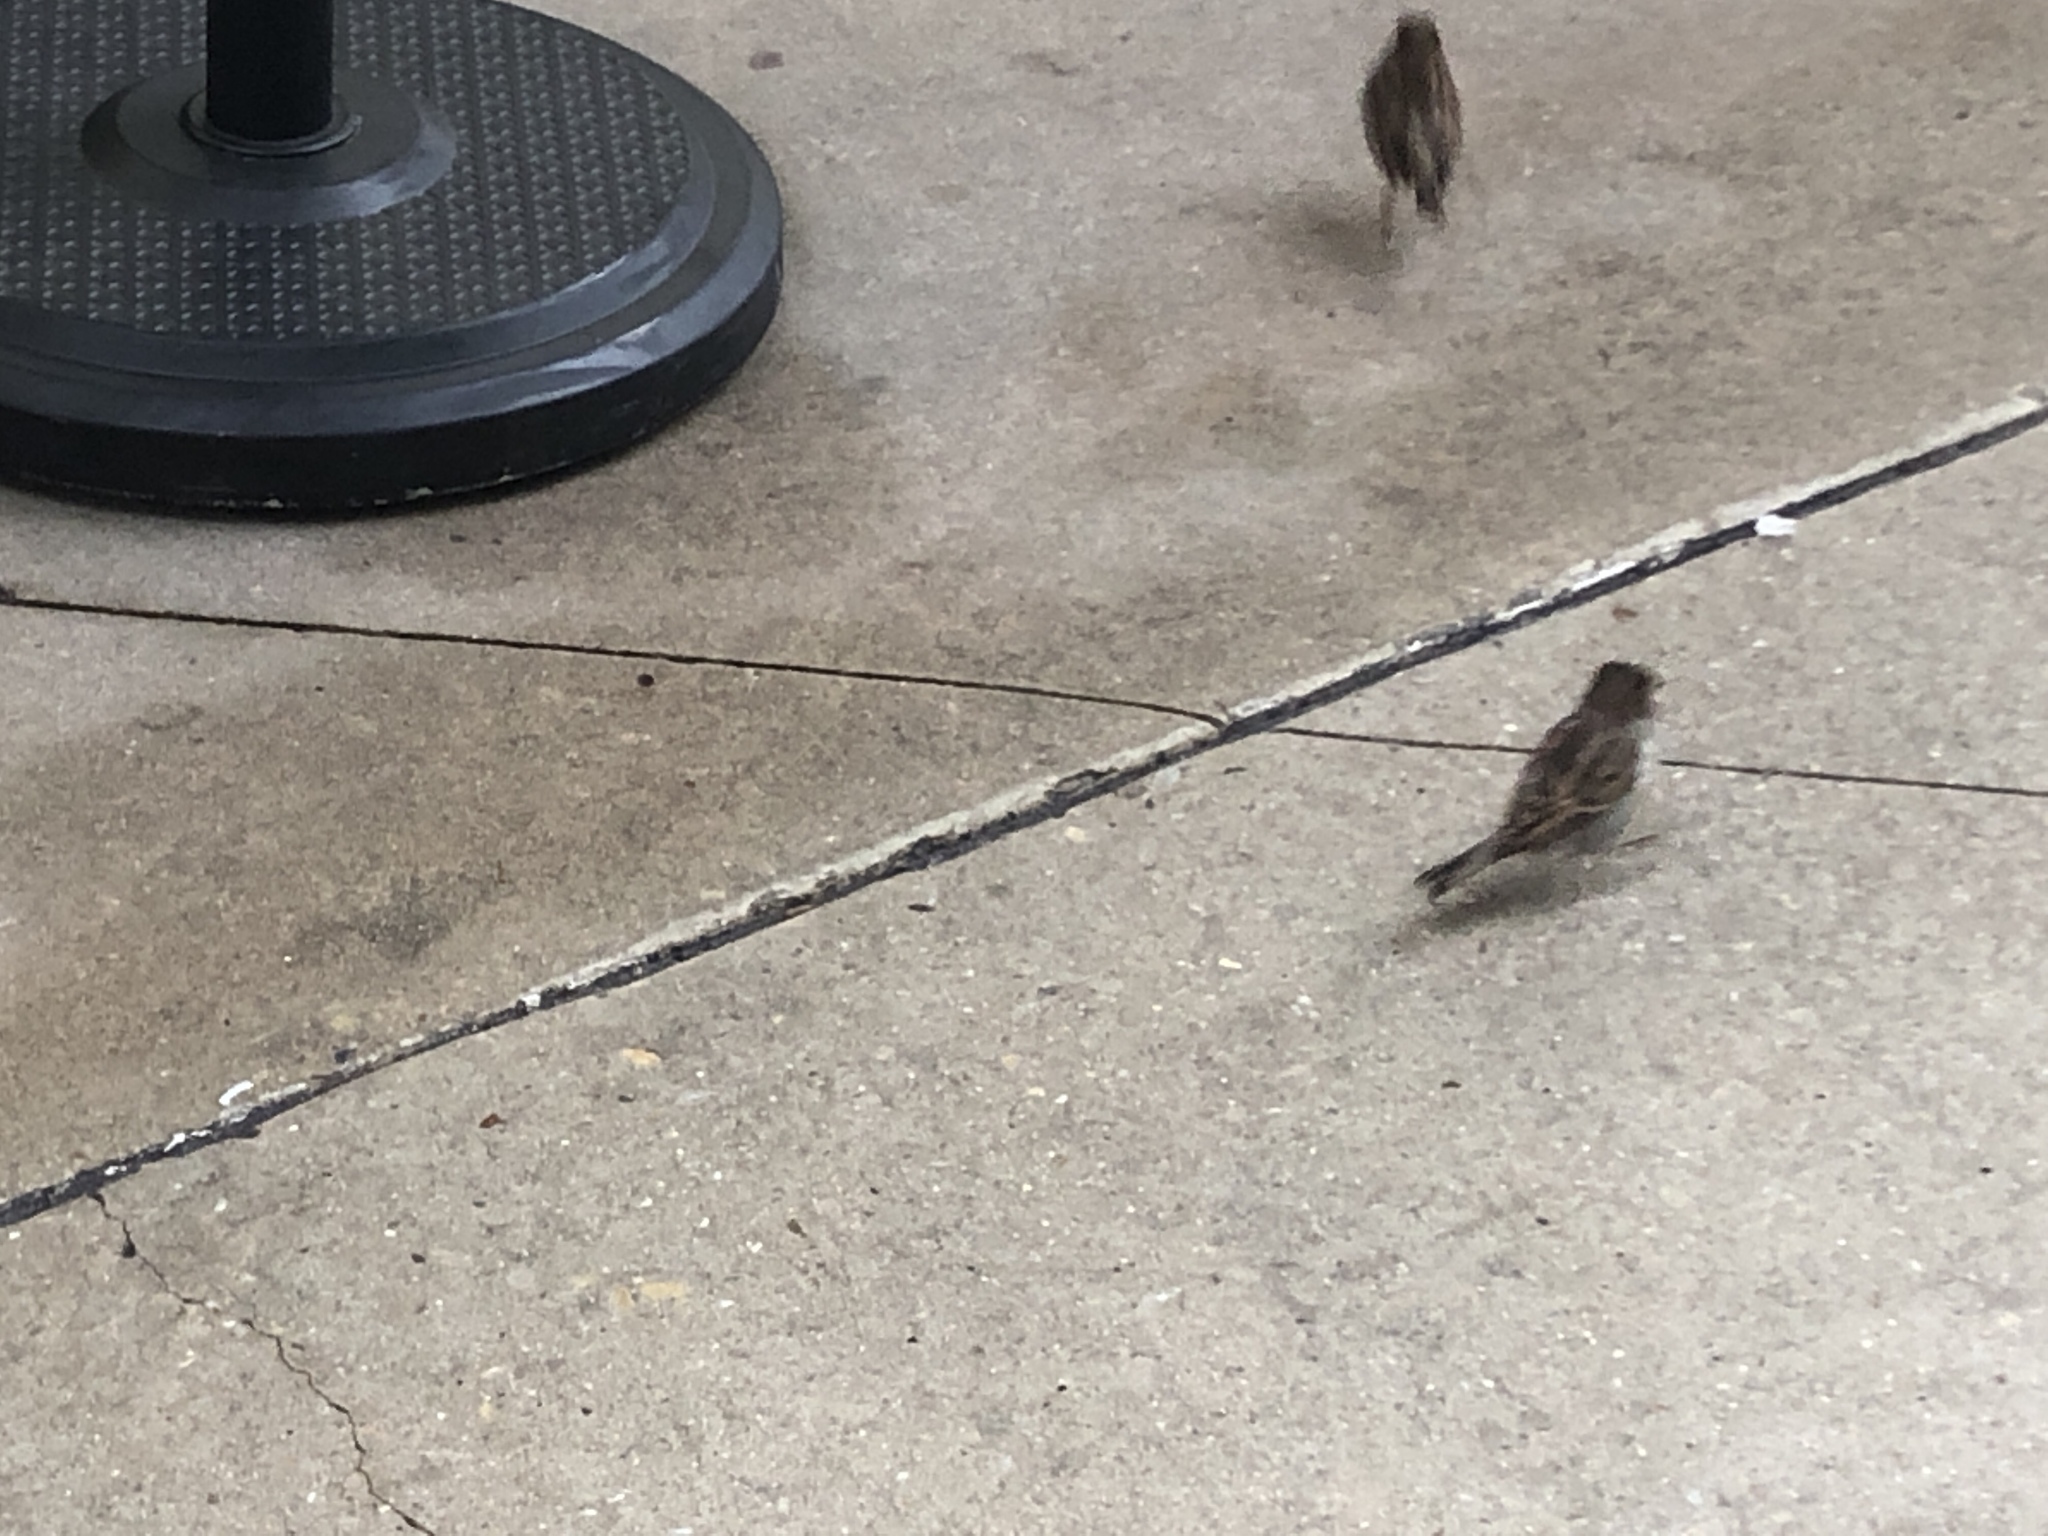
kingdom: Animalia
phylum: Chordata
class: Aves
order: Passeriformes
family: Passeridae
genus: Passer
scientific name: Passer domesticus
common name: House sparrow
